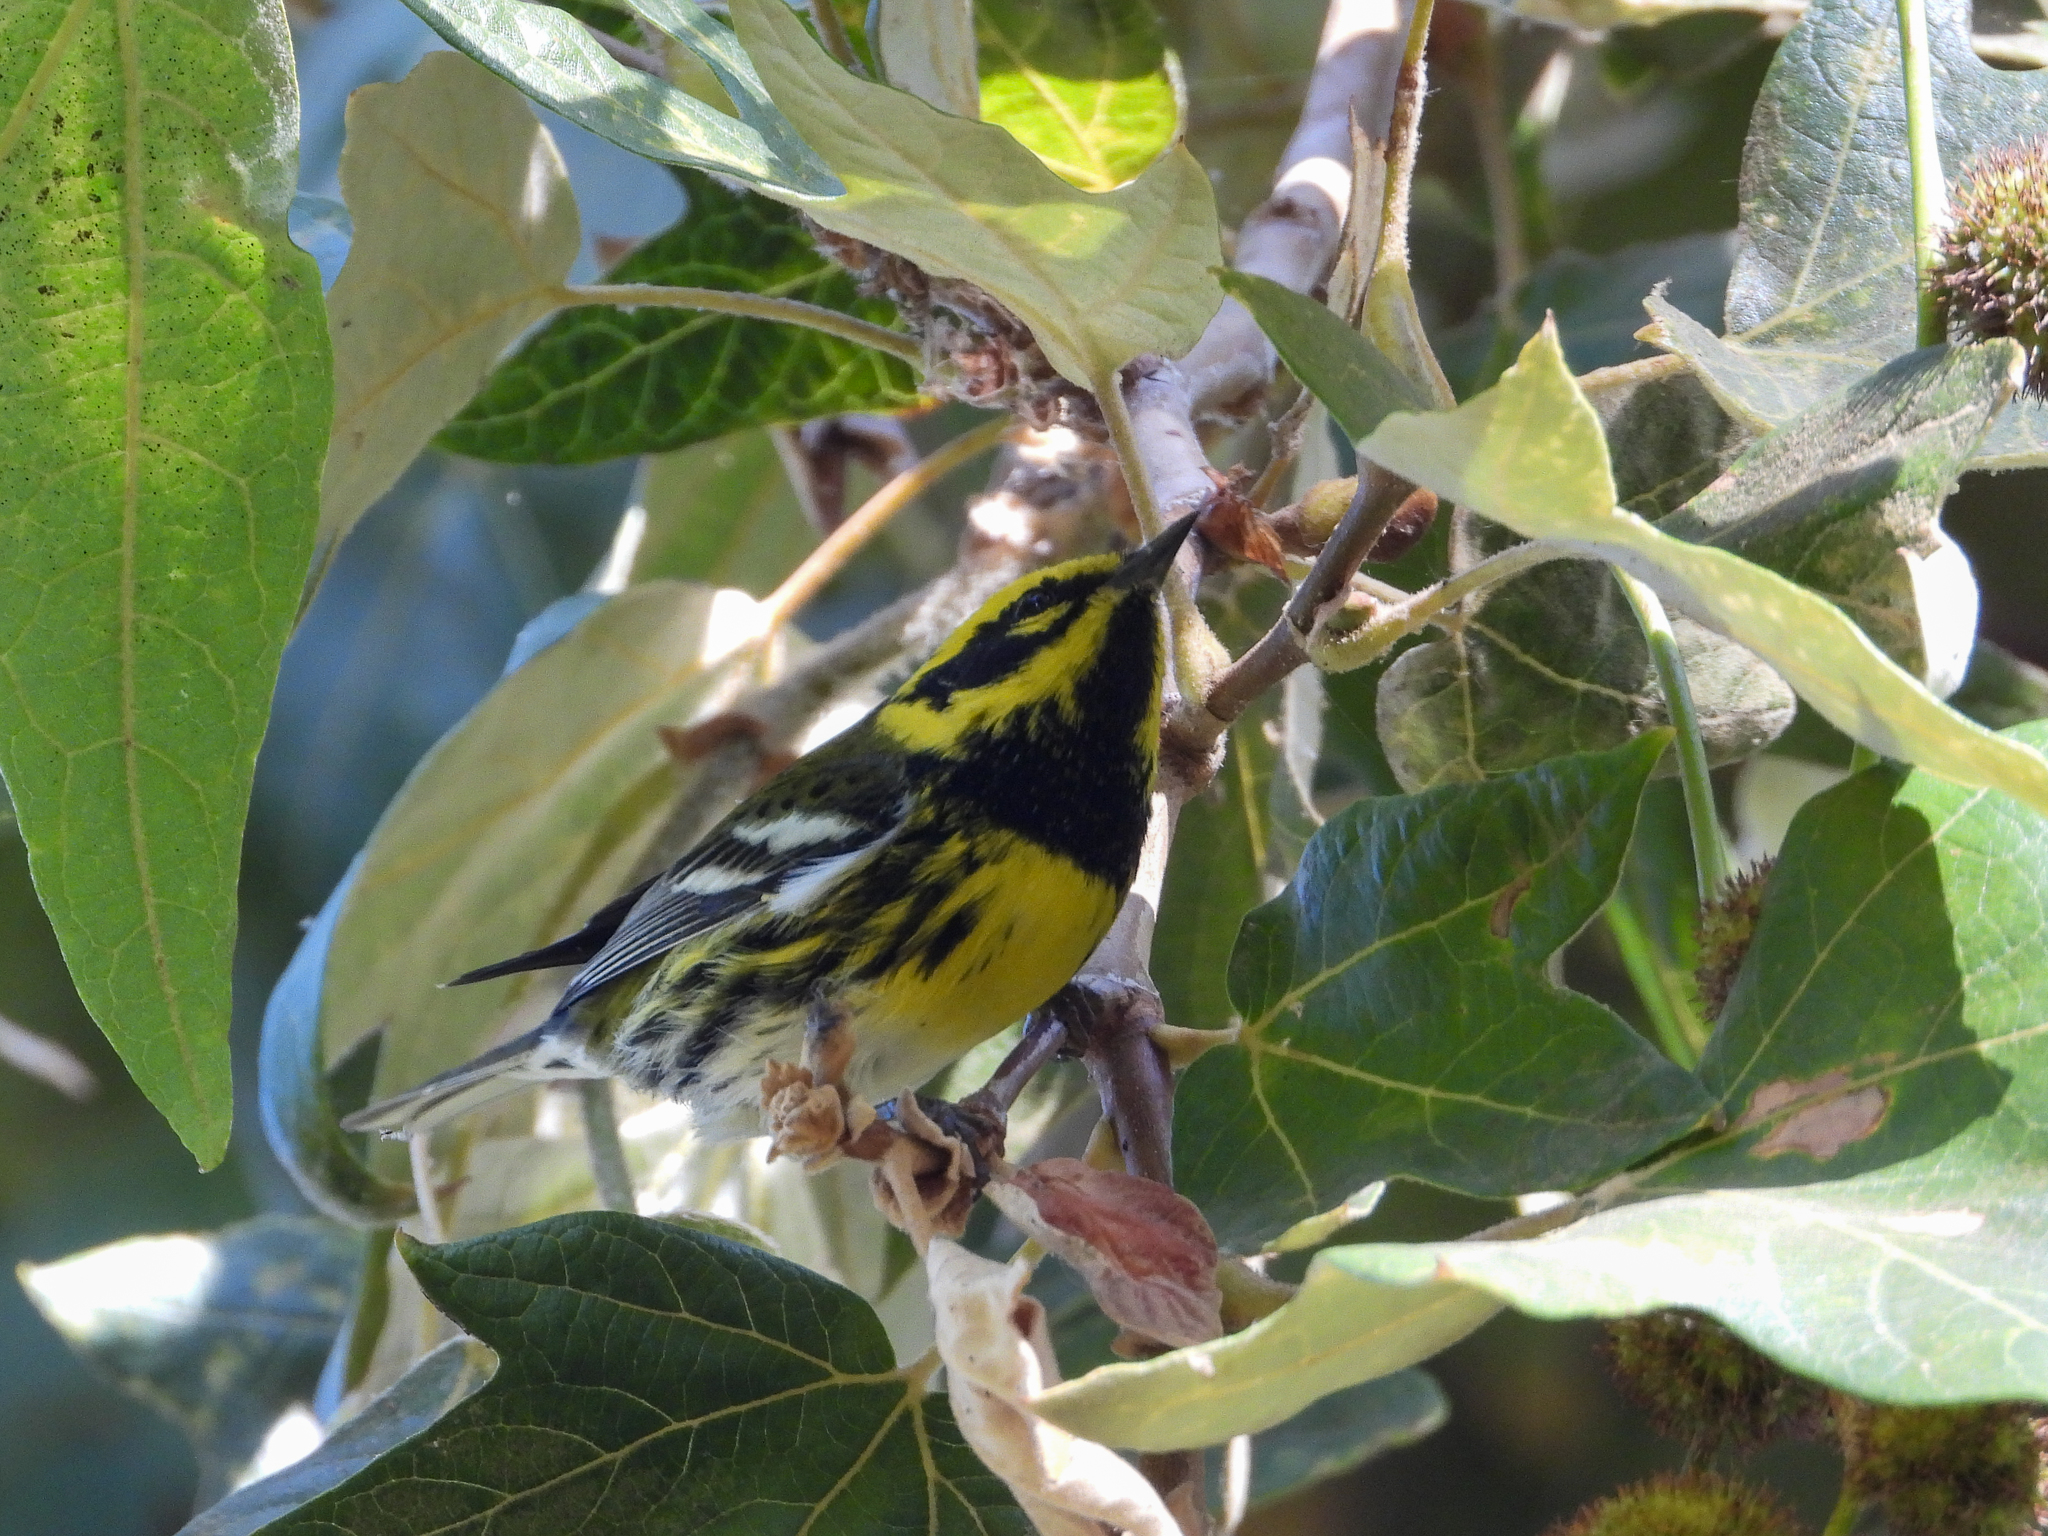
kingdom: Animalia
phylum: Chordata
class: Aves
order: Passeriformes
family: Parulidae
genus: Setophaga
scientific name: Setophaga townsendi
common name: Townsend's warbler
